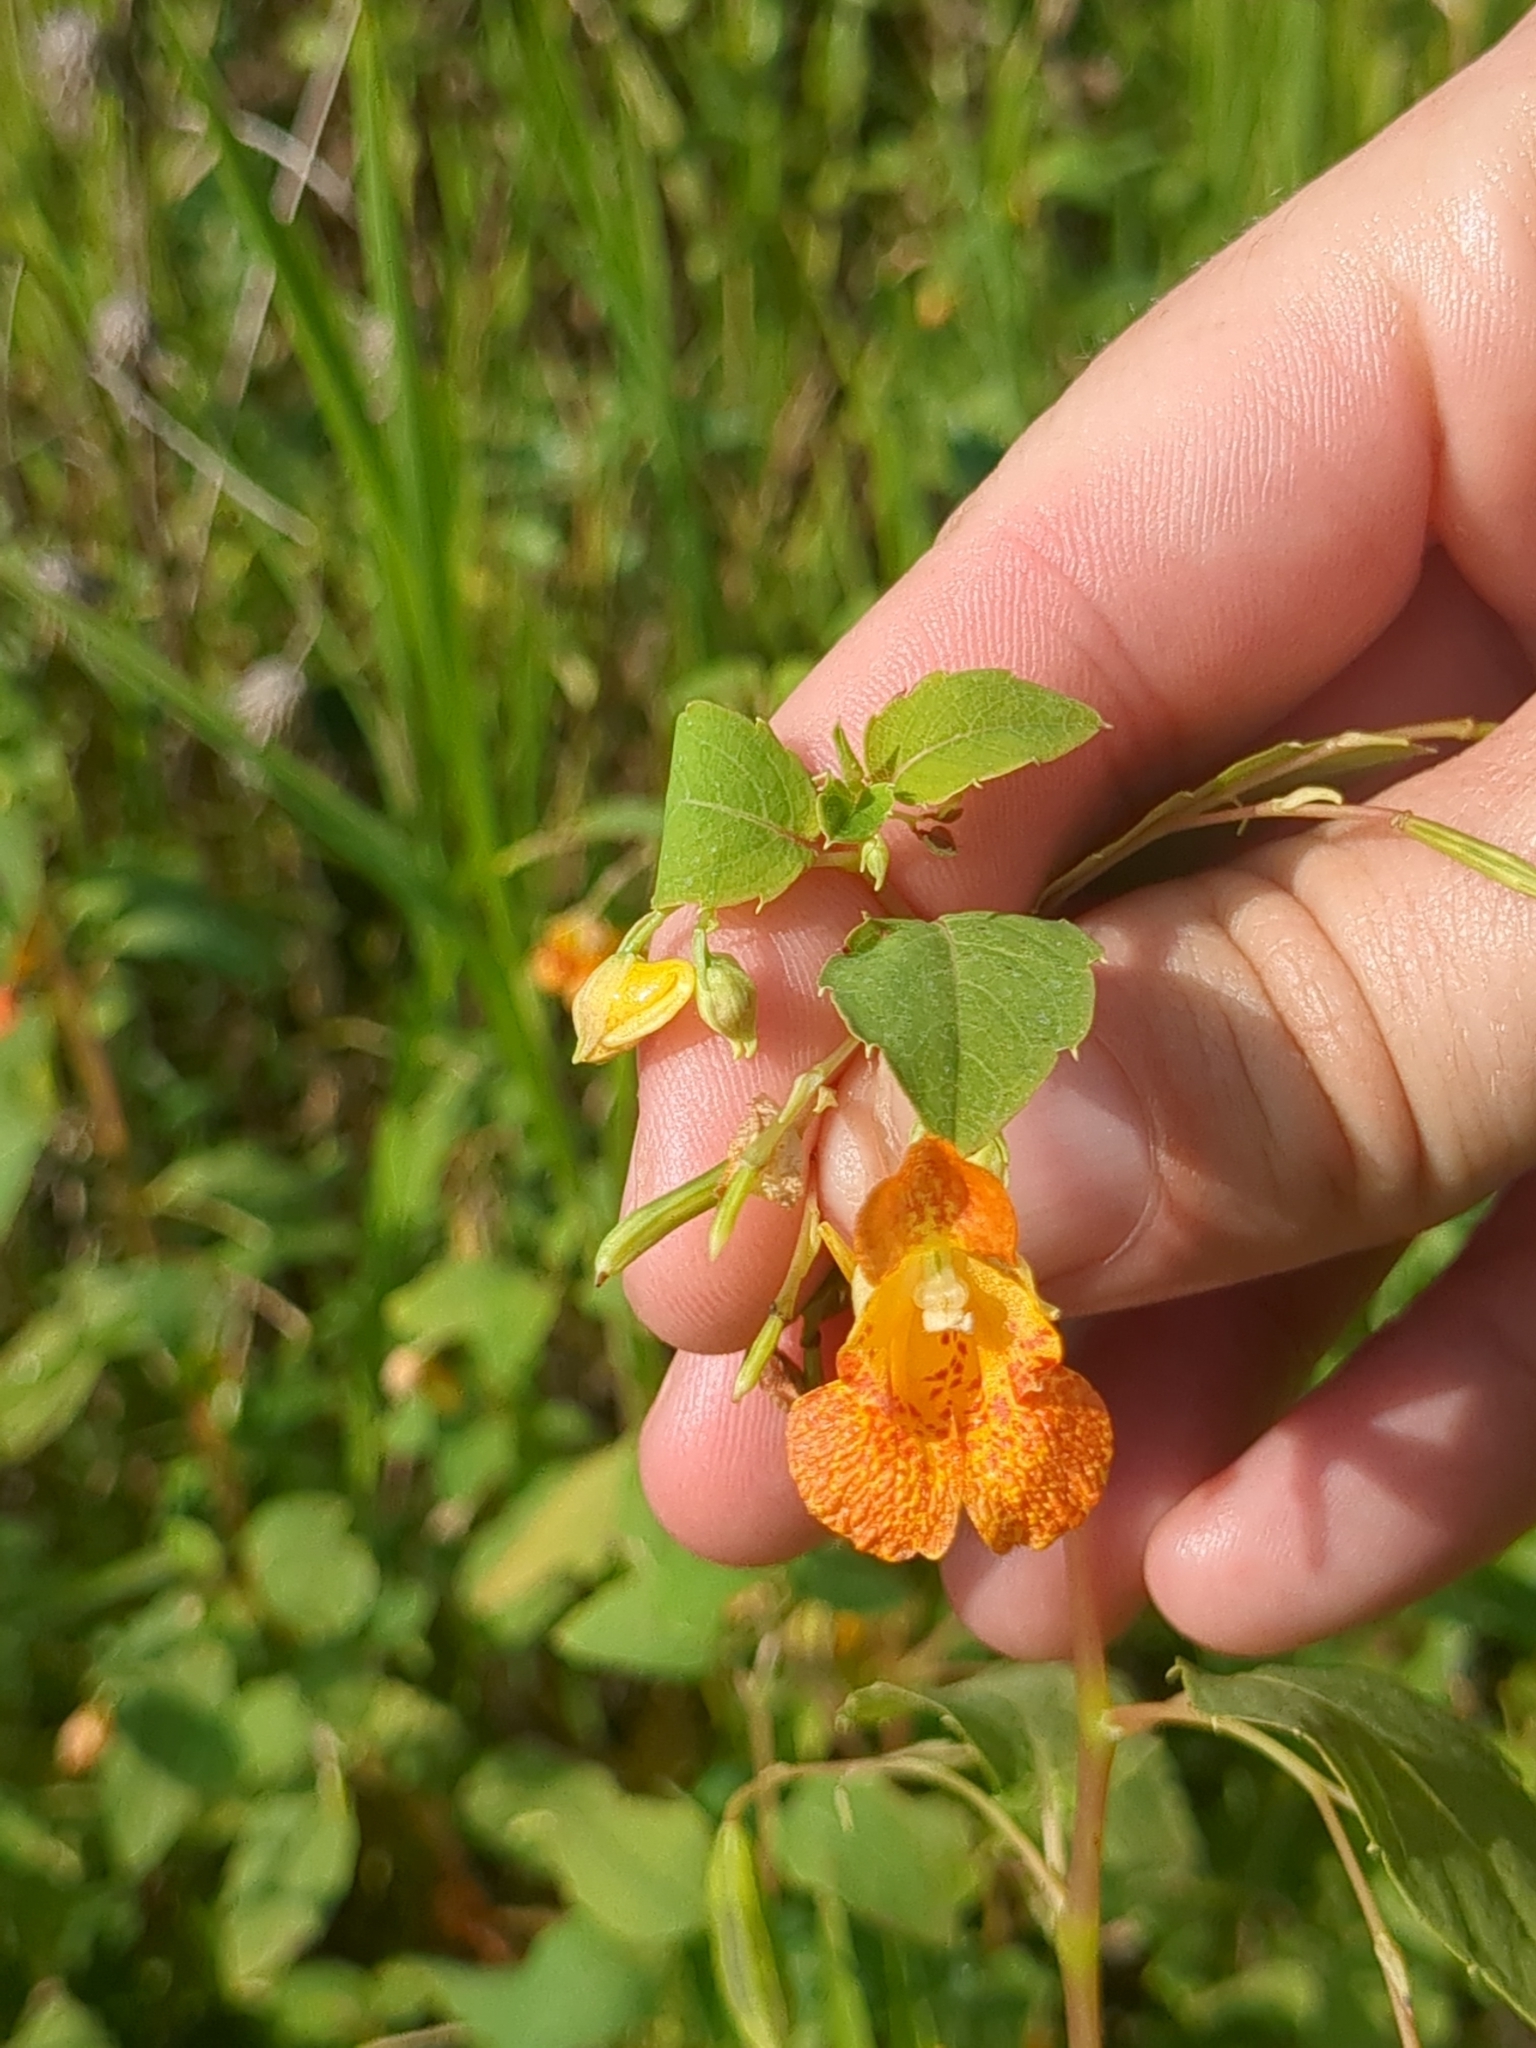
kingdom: Plantae
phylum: Tracheophyta
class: Magnoliopsida
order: Ericales
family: Balsaminaceae
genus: Impatiens
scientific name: Impatiens capensis
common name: Orange balsam
